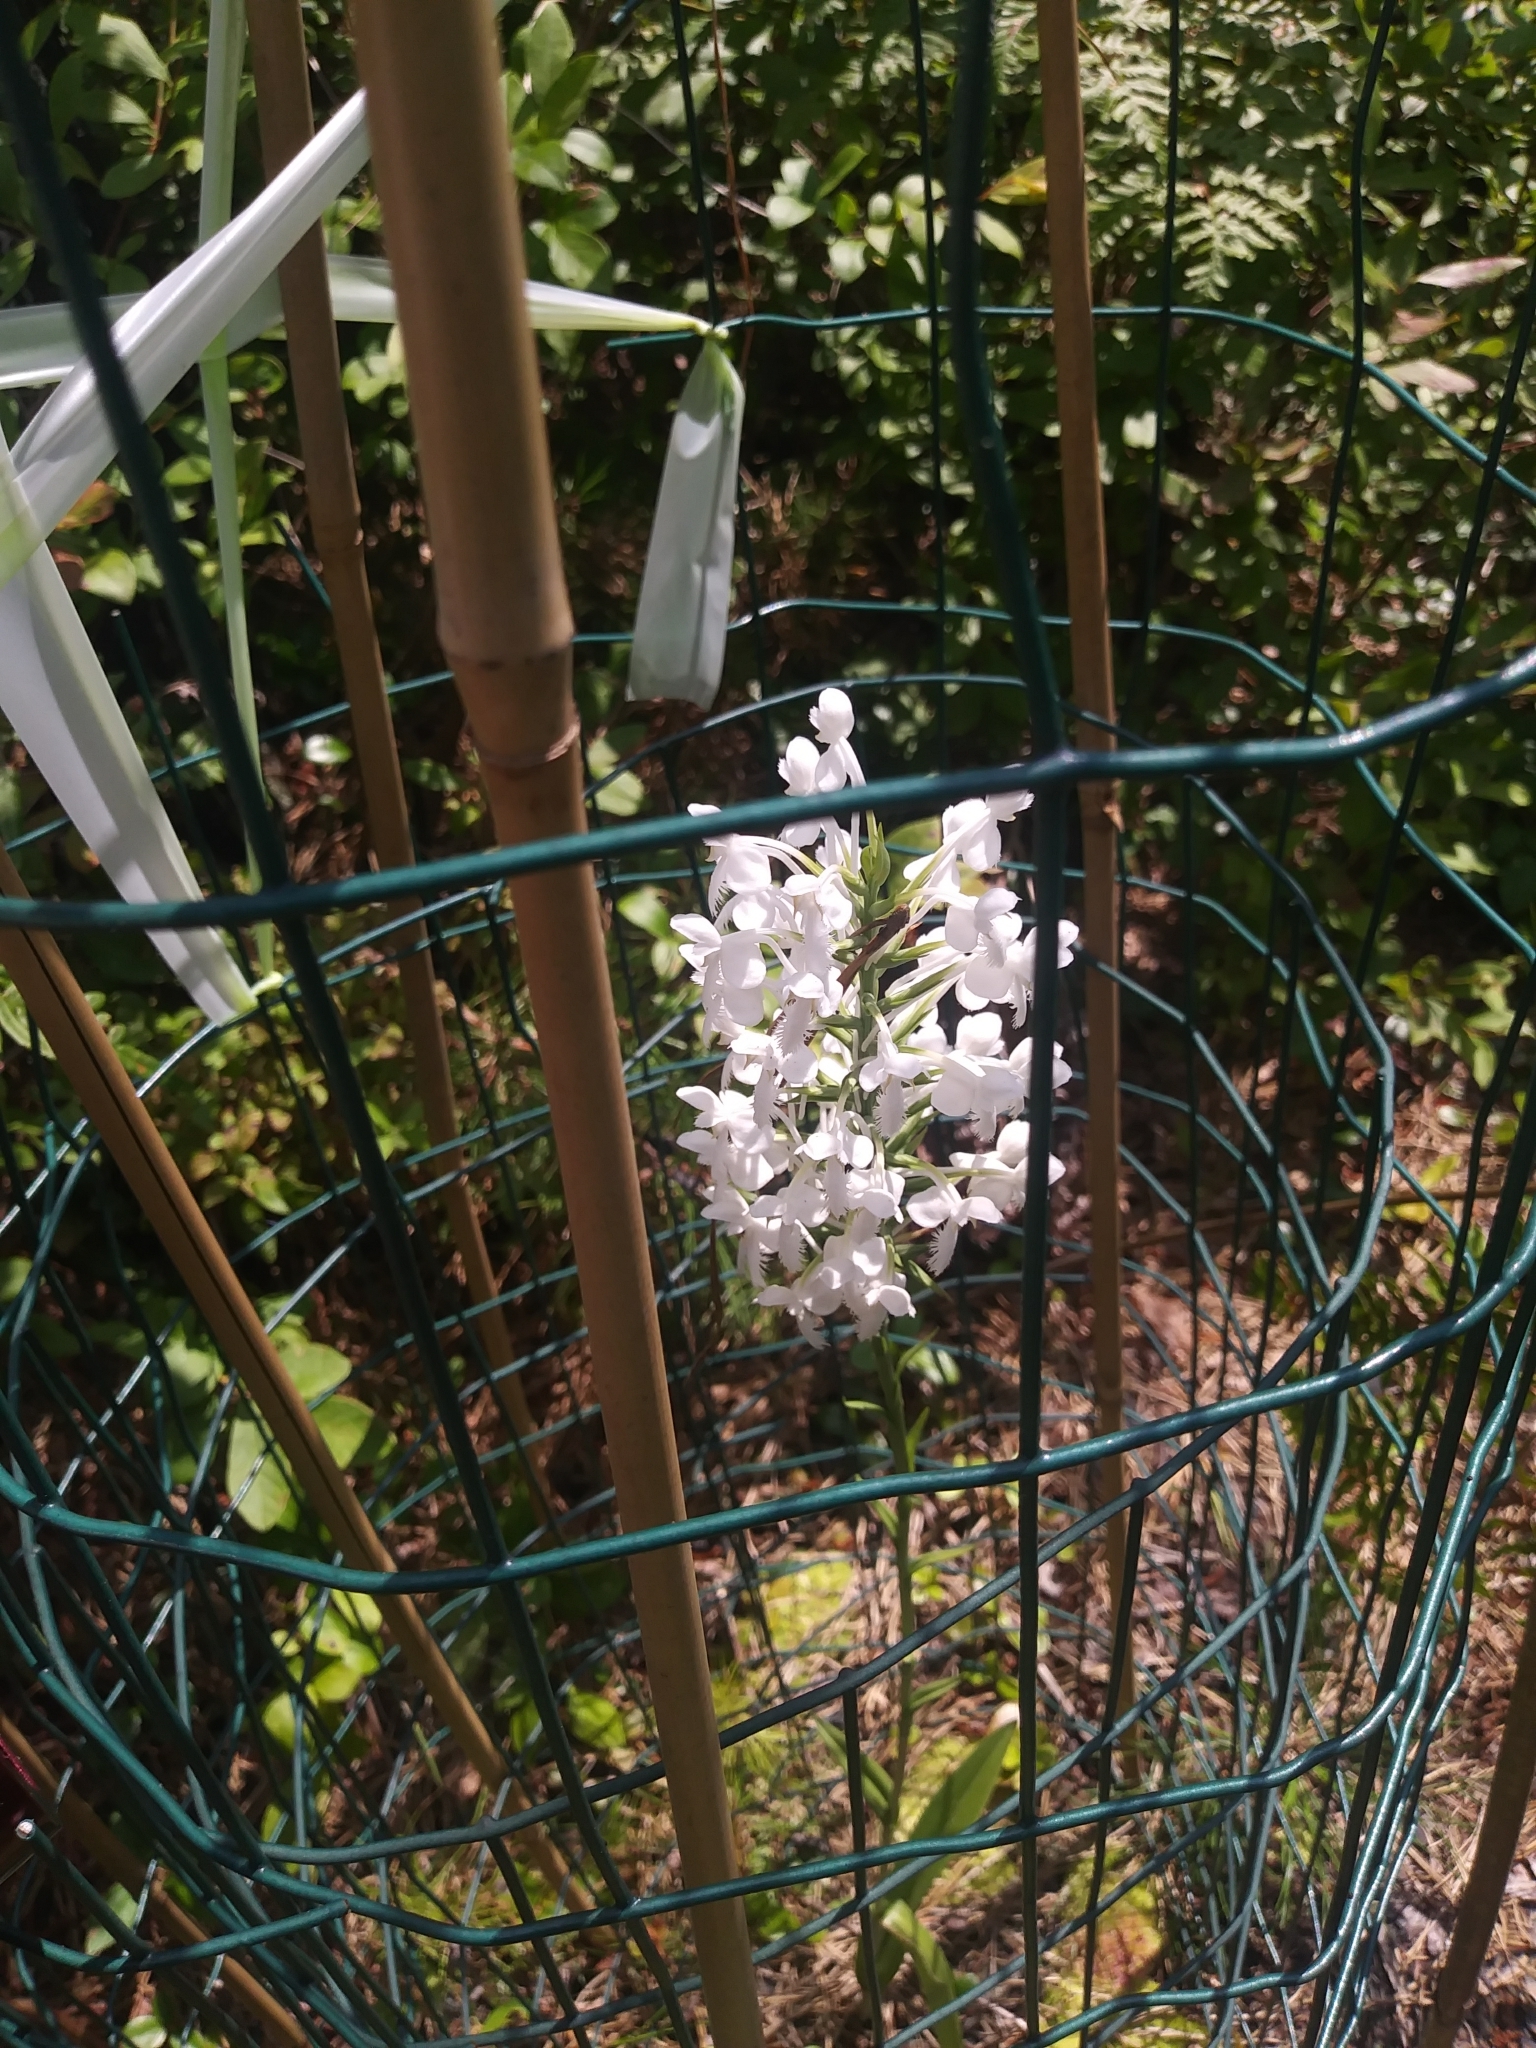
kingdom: Plantae
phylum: Tracheophyta
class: Liliopsida
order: Asparagales
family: Orchidaceae
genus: Platanthera
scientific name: Platanthera blephariglottis
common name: White fringed orchid
